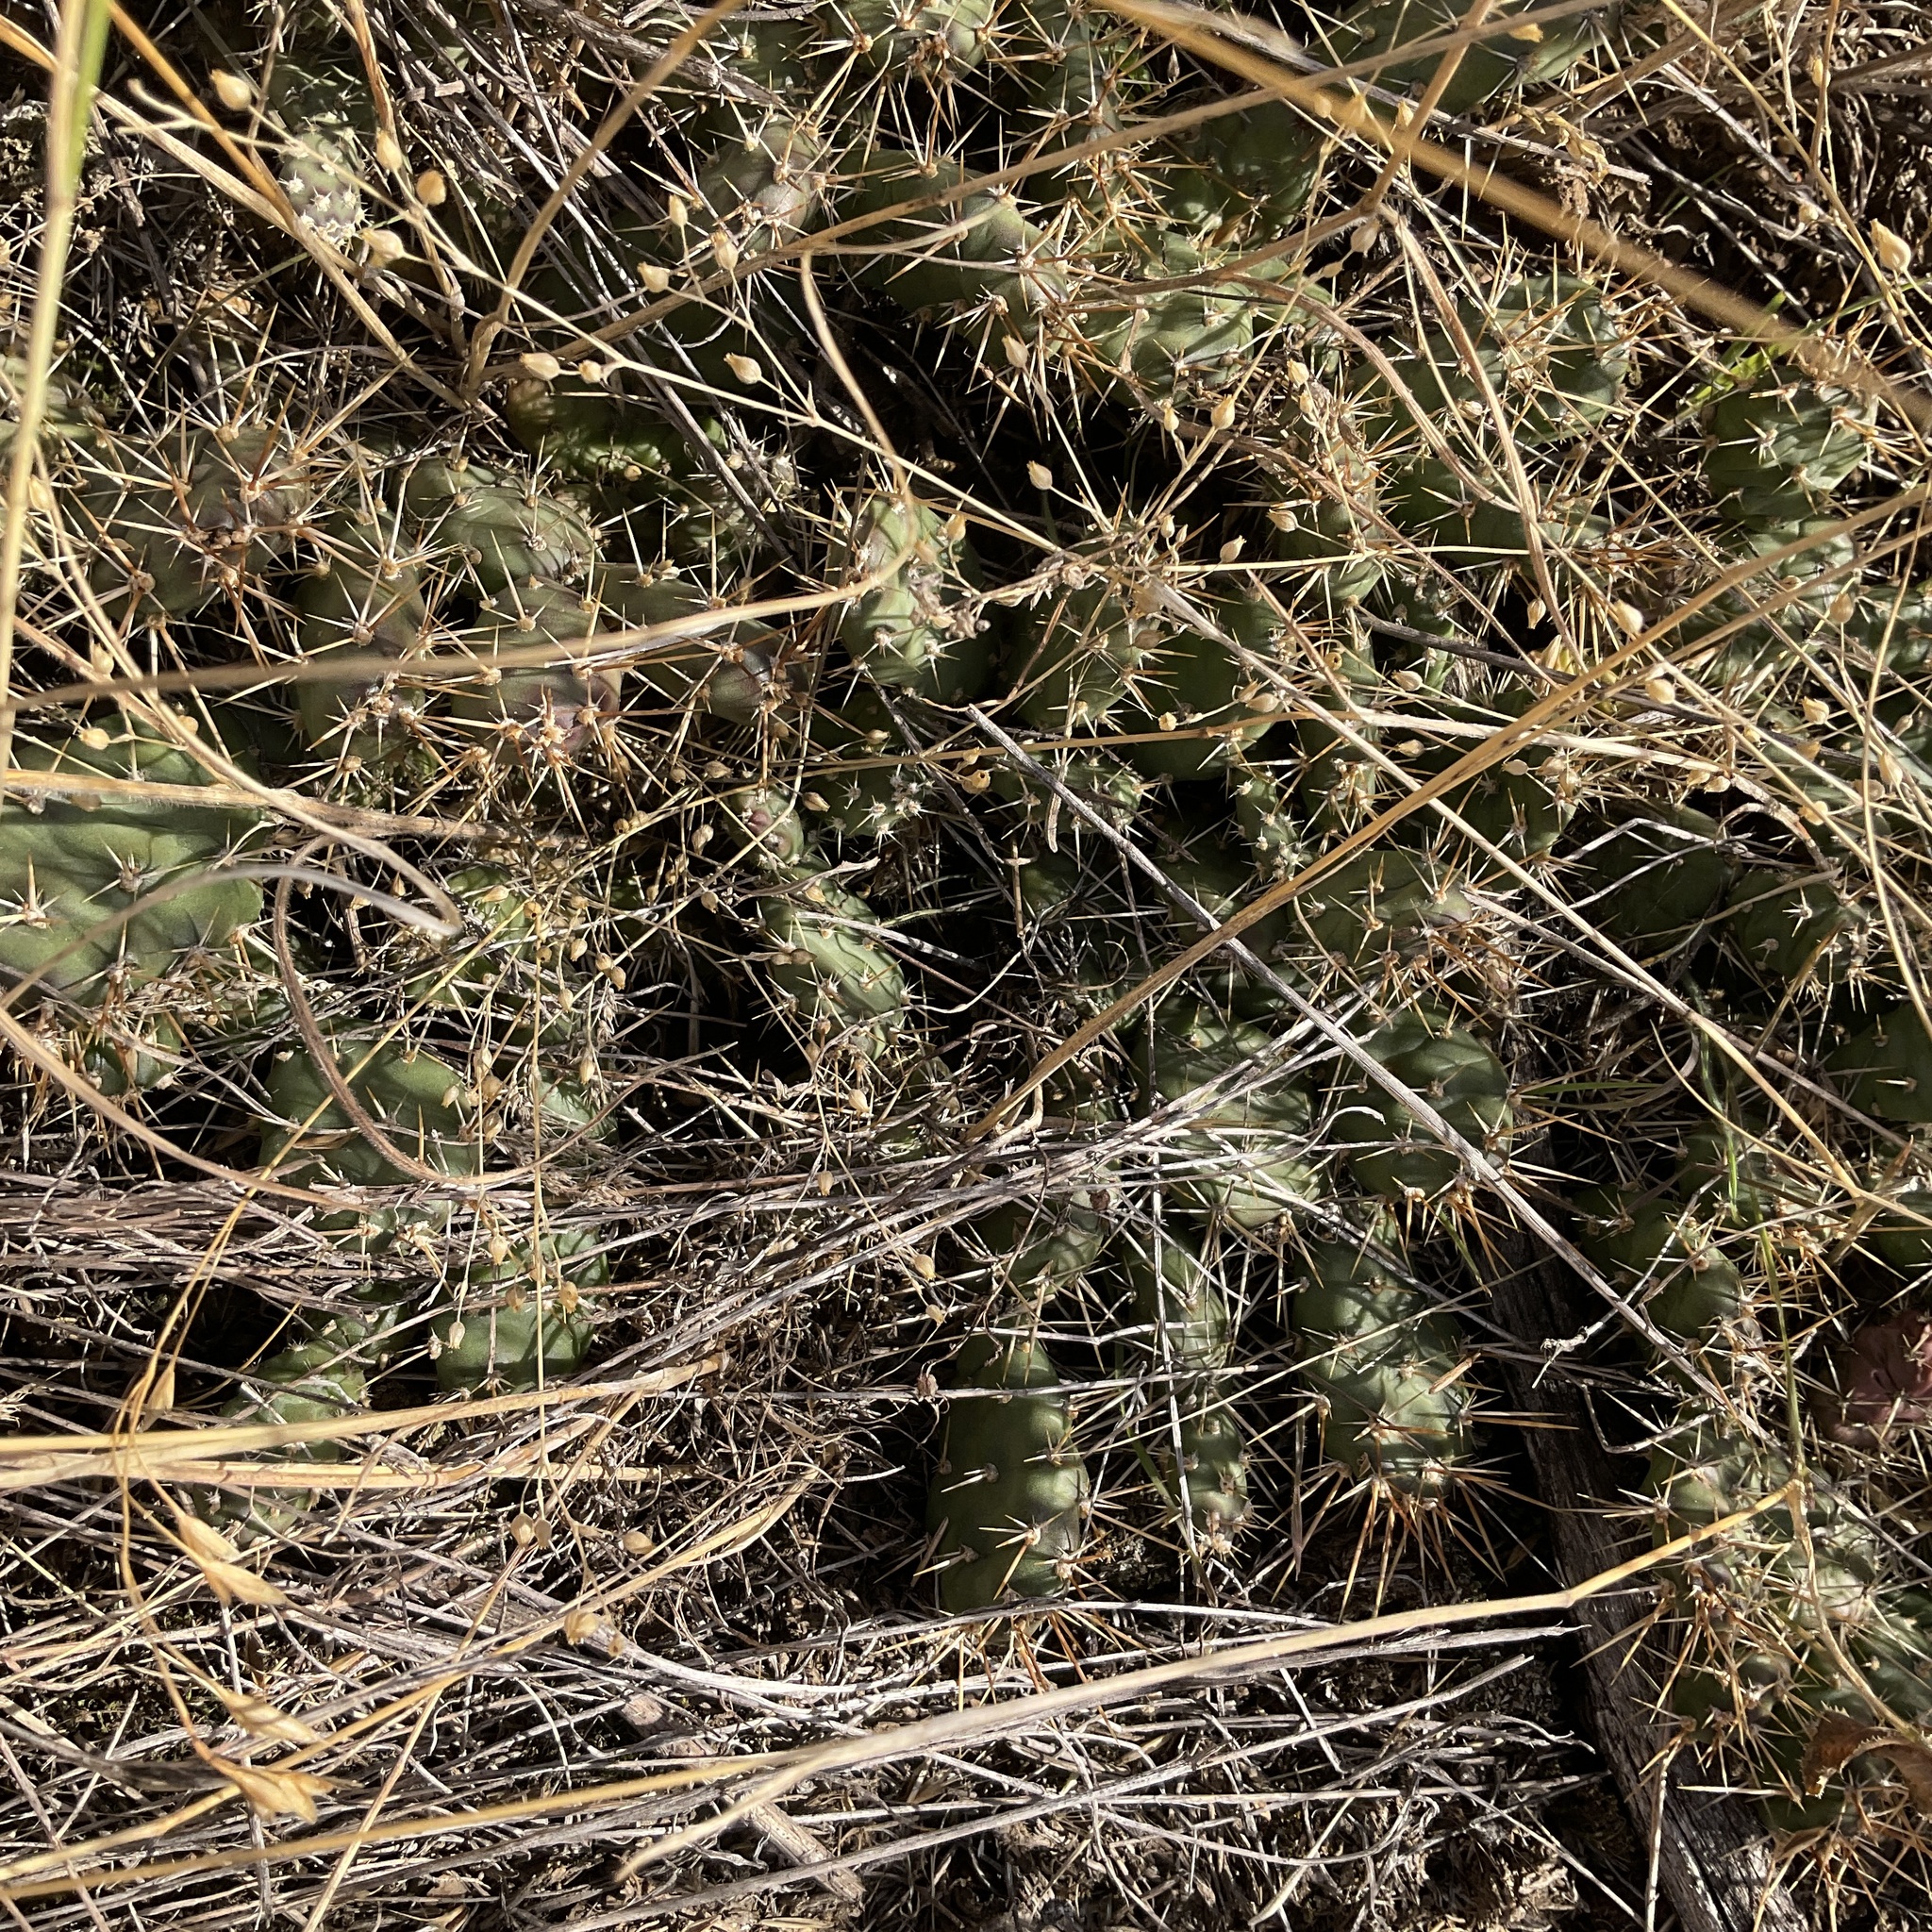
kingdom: Plantae
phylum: Tracheophyta
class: Magnoliopsida
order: Caryophyllales
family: Cactaceae
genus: Opuntia
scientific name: Opuntia fragilis
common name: Brittle cactus
